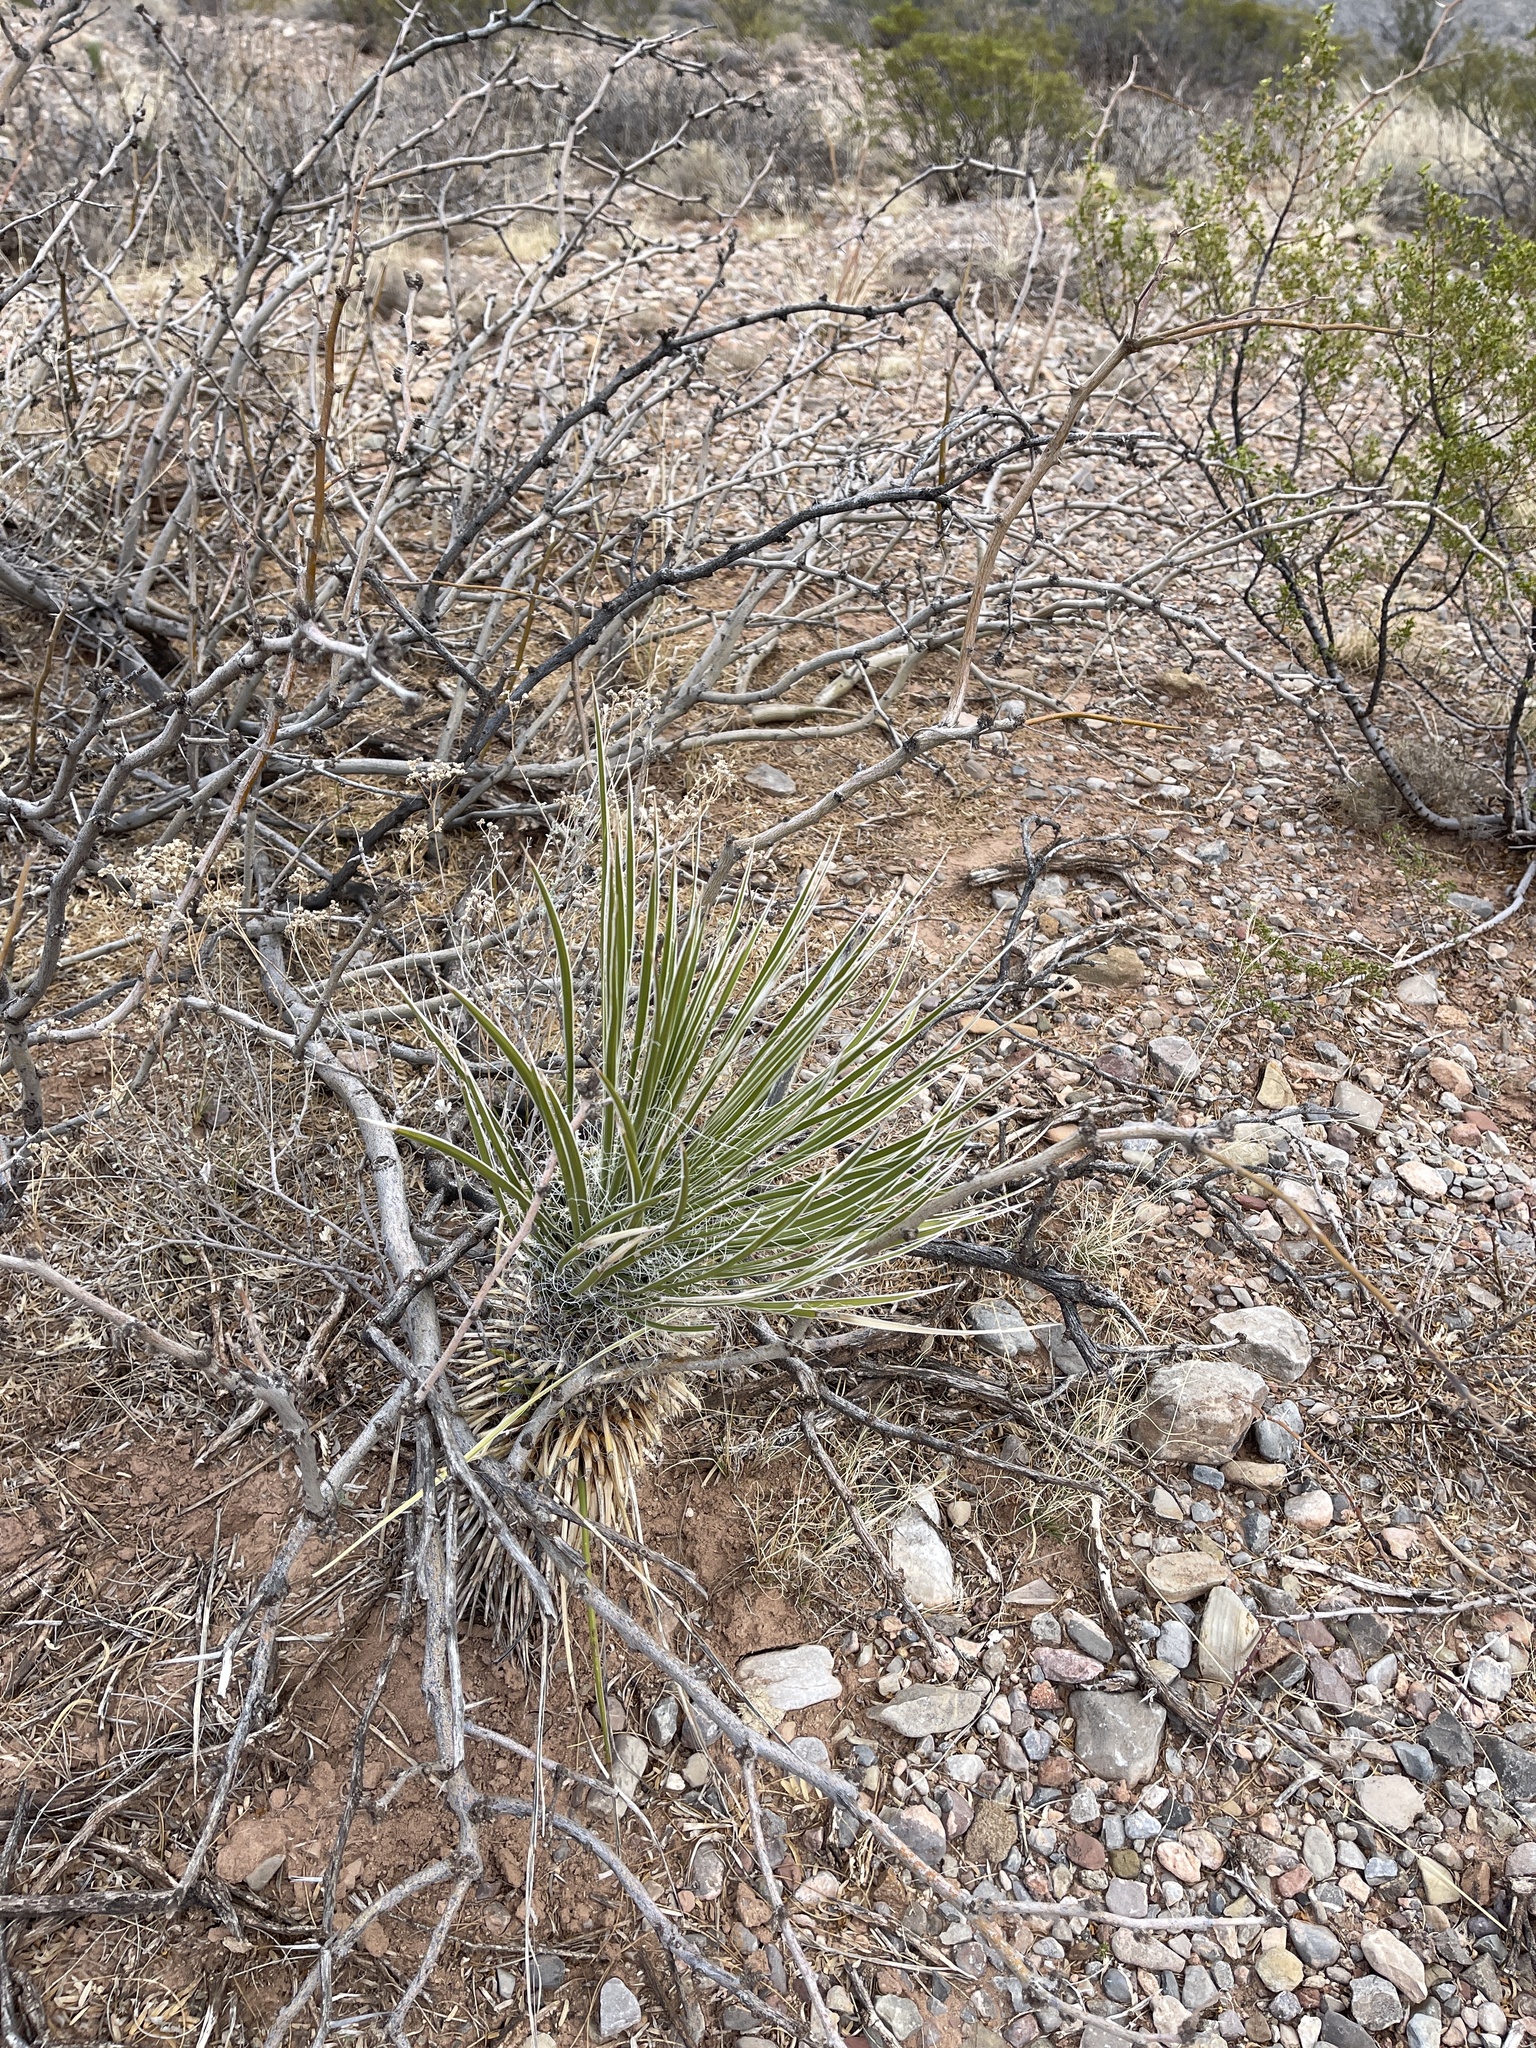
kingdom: Plantae
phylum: Tracheophyta
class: Liliopsida
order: Asparagales
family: Asparagaceae
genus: Yucca
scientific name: Yucca elata
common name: Palmella
